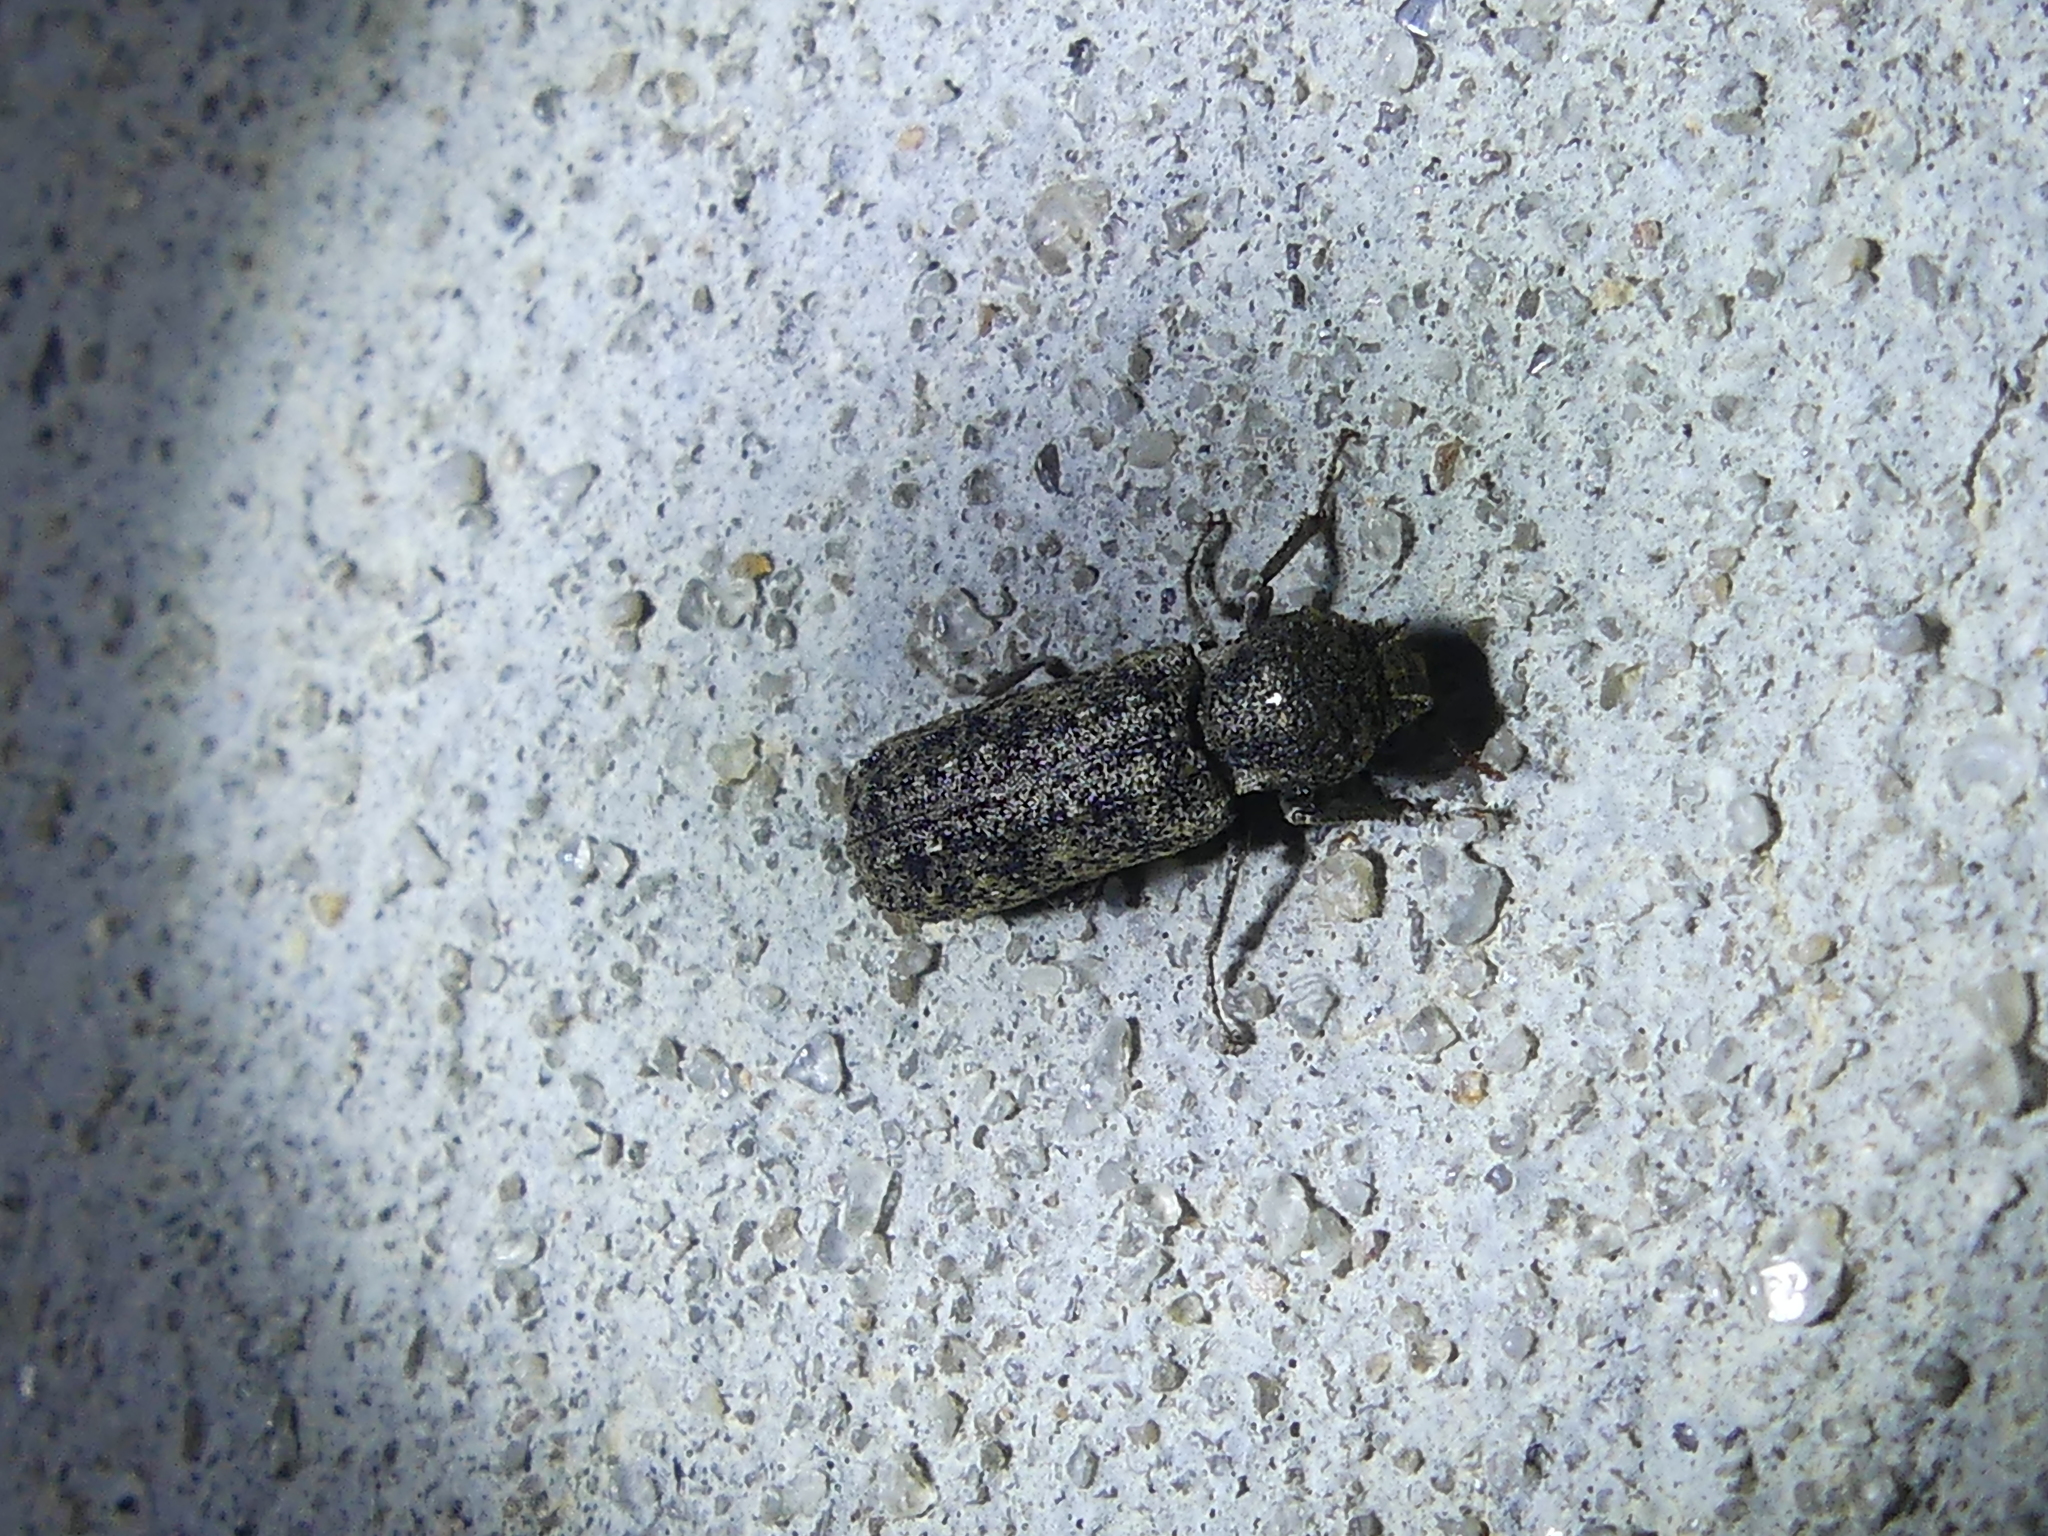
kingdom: Animalia
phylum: Arthropoda
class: Insecta
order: Coleoptera
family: Bostrichidae
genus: Lichenophanes
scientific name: Lichenophanes bicornis
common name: Two-horned powder-post beetle
